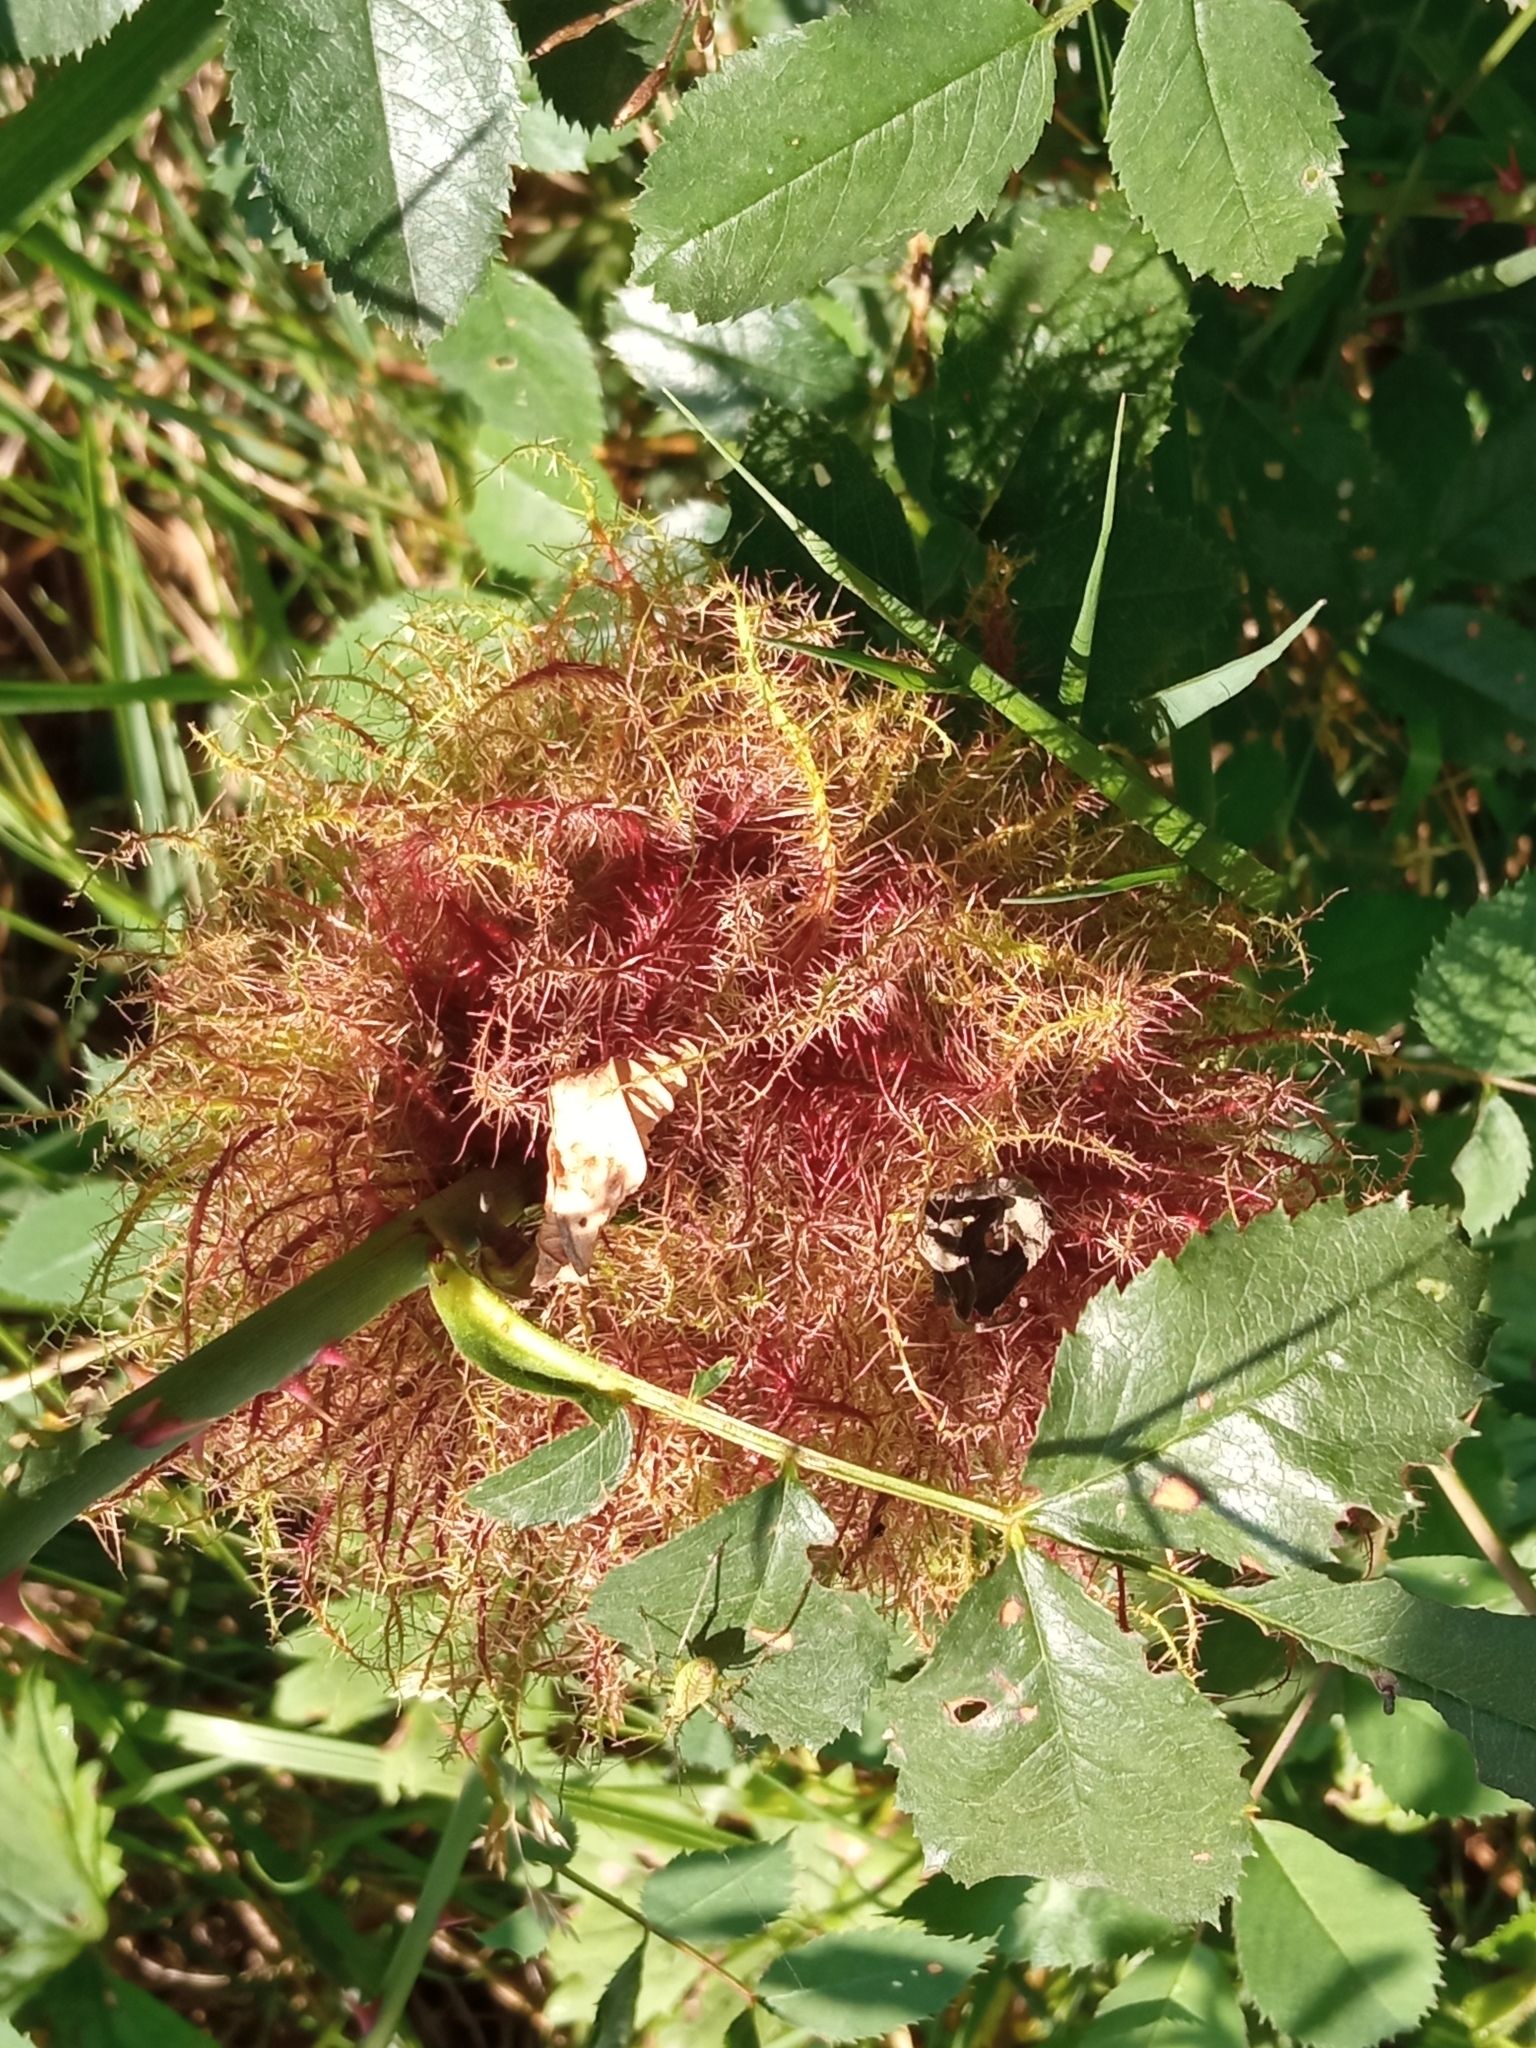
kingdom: Animalia
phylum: Arthropoda
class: Insecta
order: Hymenoptera
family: Cynipidae
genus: Diplolepis
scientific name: Diplolepis rosae
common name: Bedeguar gall
